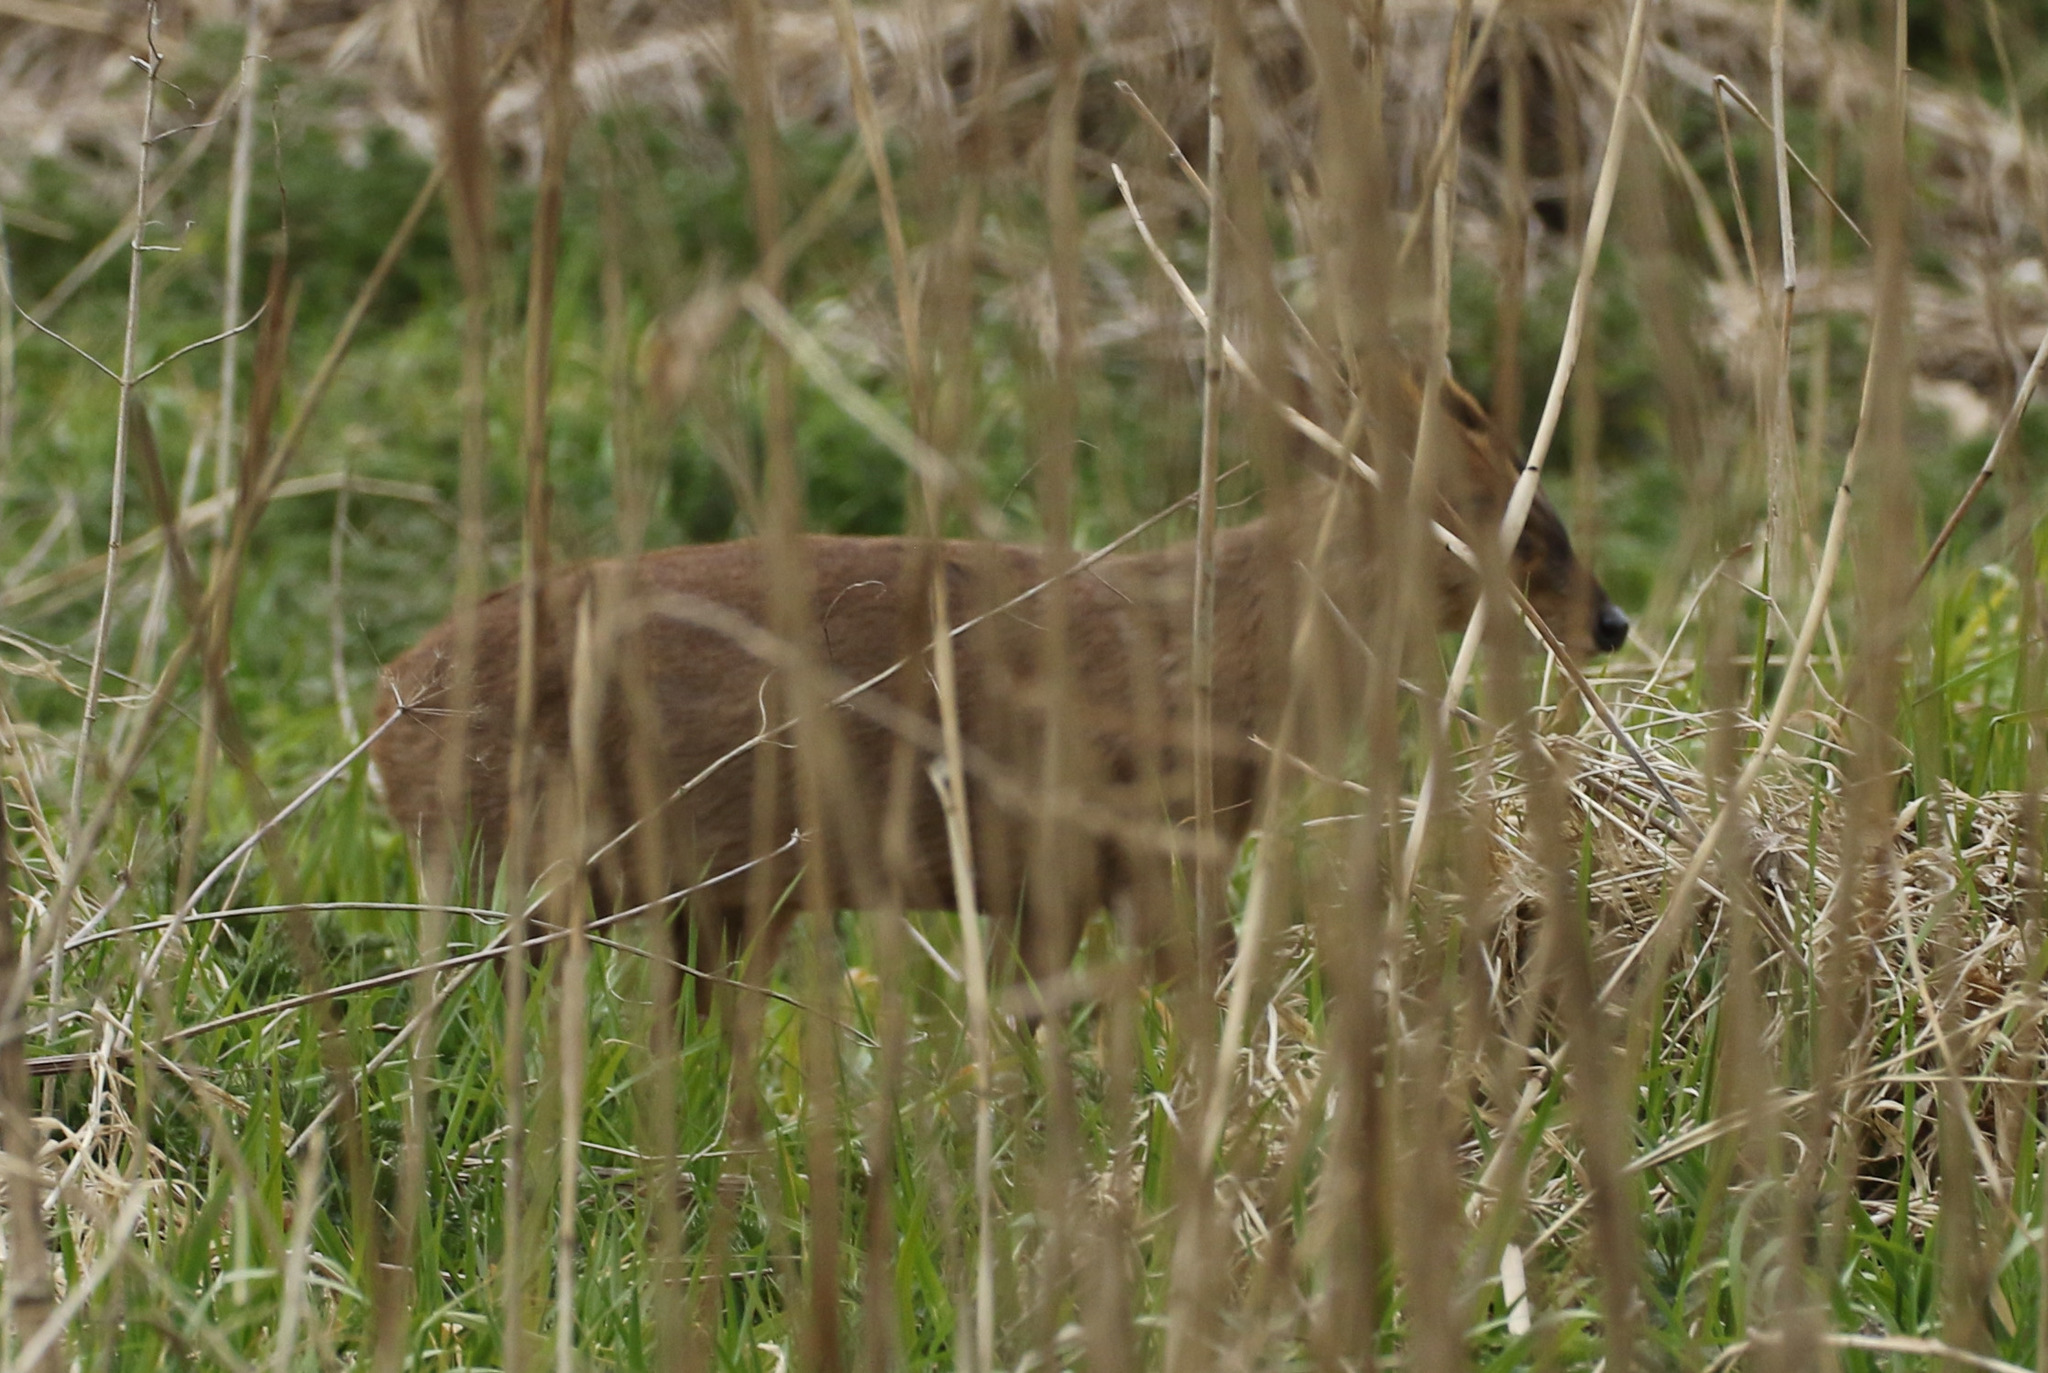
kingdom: Animalia
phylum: Chordata
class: Mammalia
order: Artiodactyla
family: Cervidae
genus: Muntiacus
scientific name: Muntiacus reevesi
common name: Reeves' muntjac
